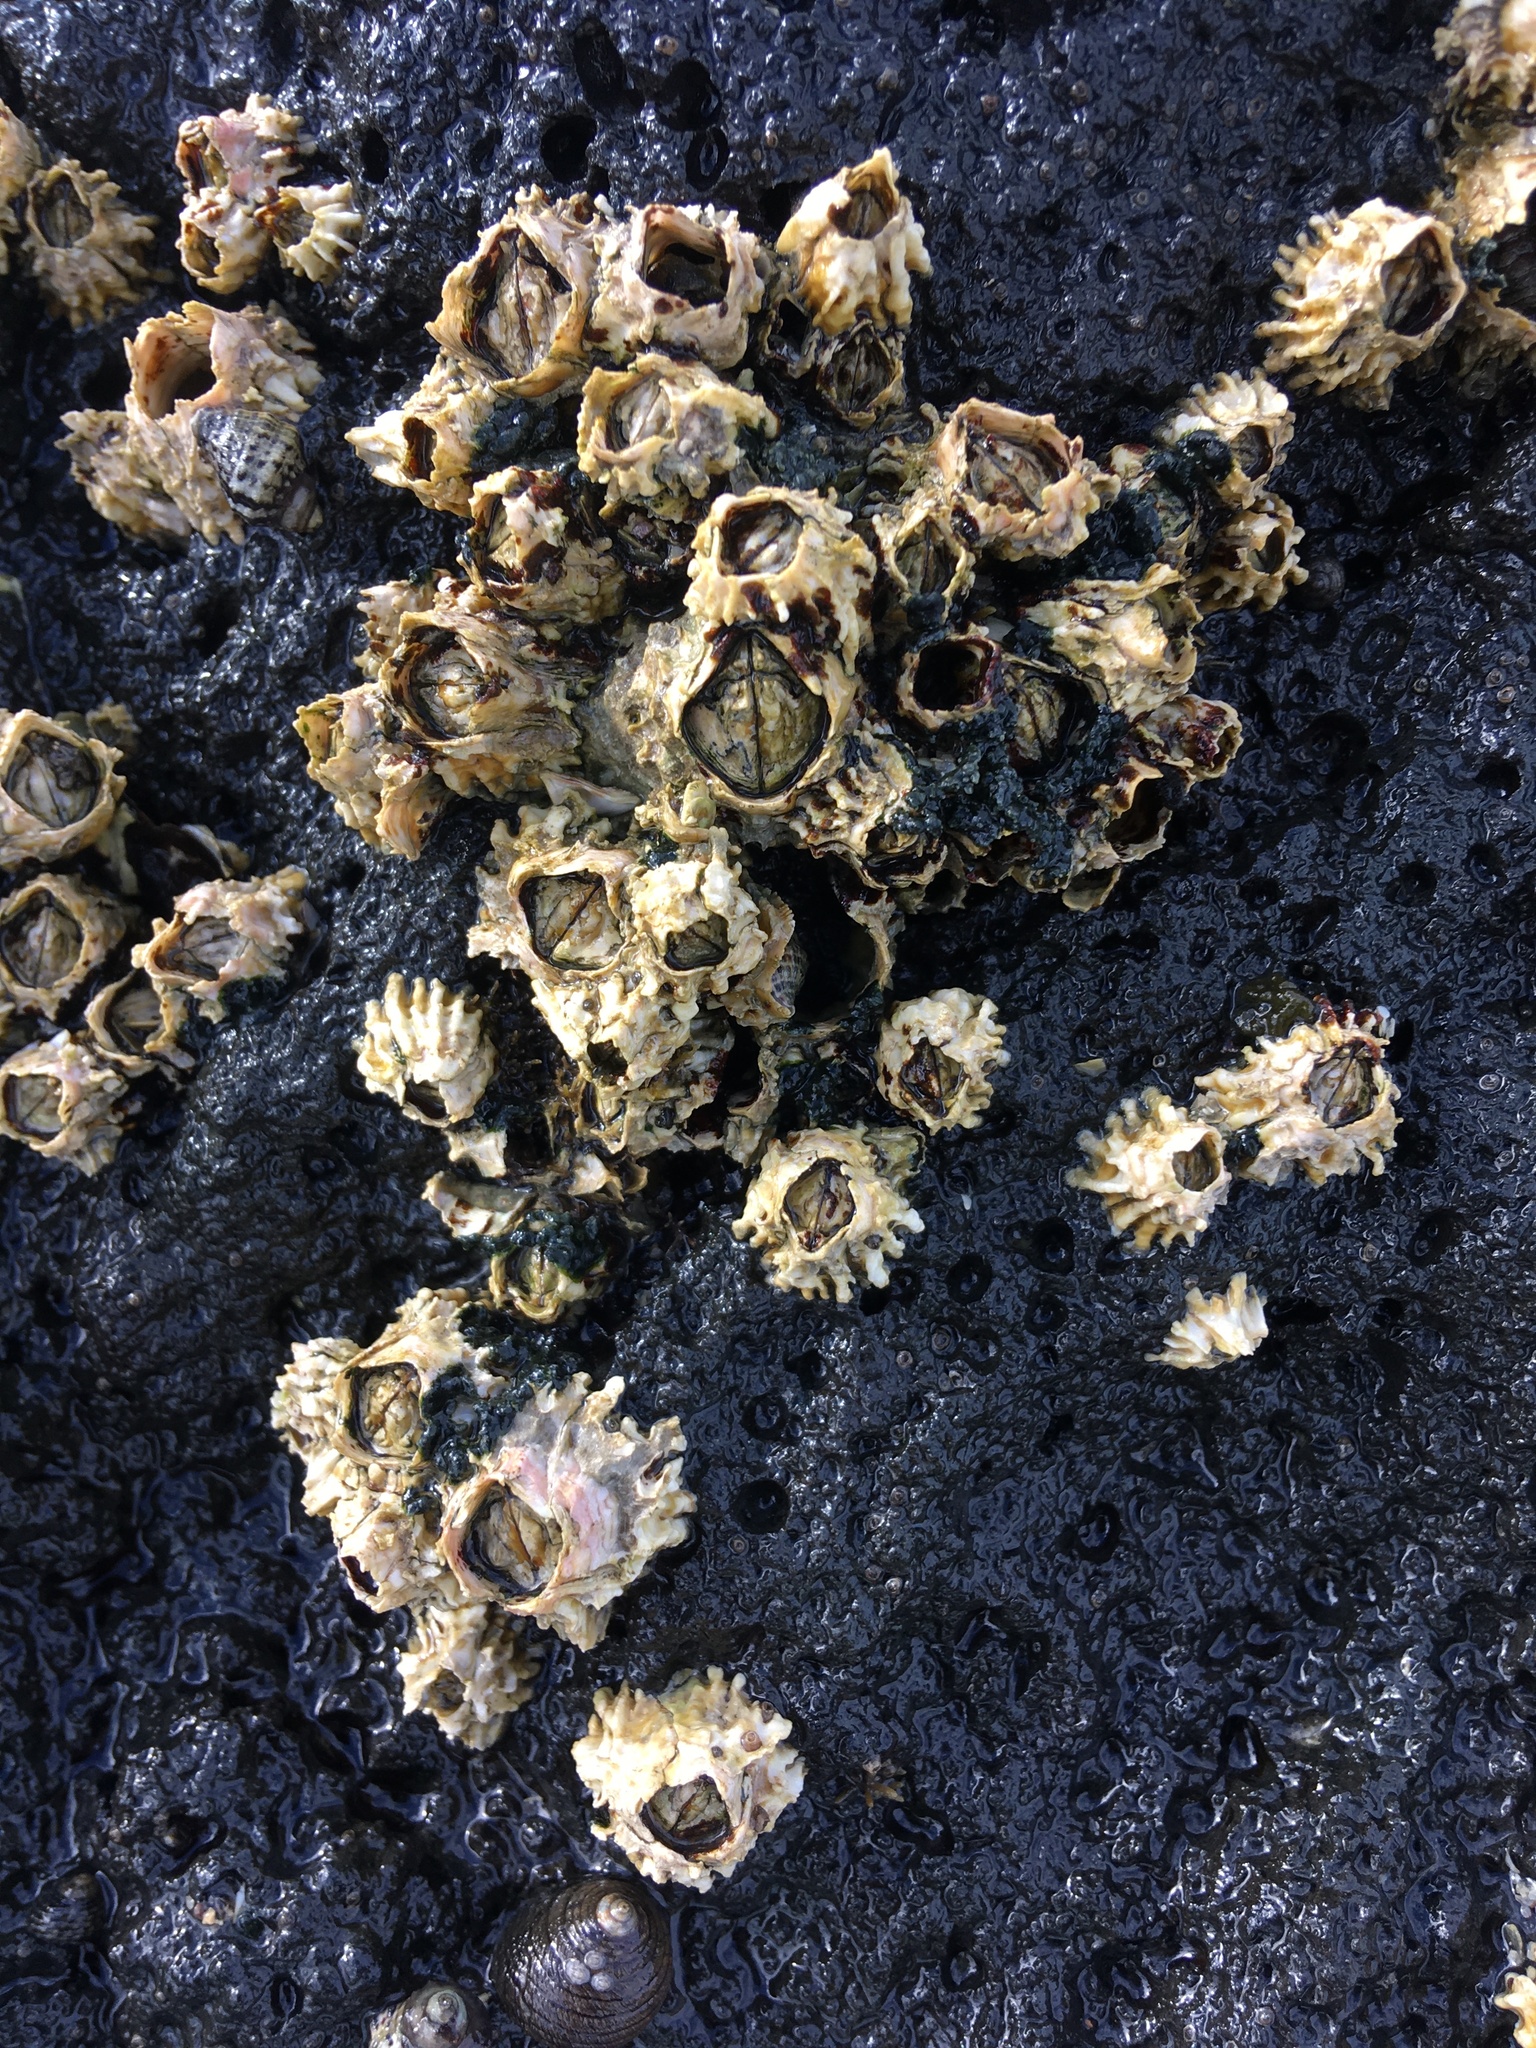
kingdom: Animalia
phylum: Arthropoda
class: Maxillopoda
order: Sessilia
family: Tetraclitidae
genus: Epopella
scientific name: Epopella plicata
